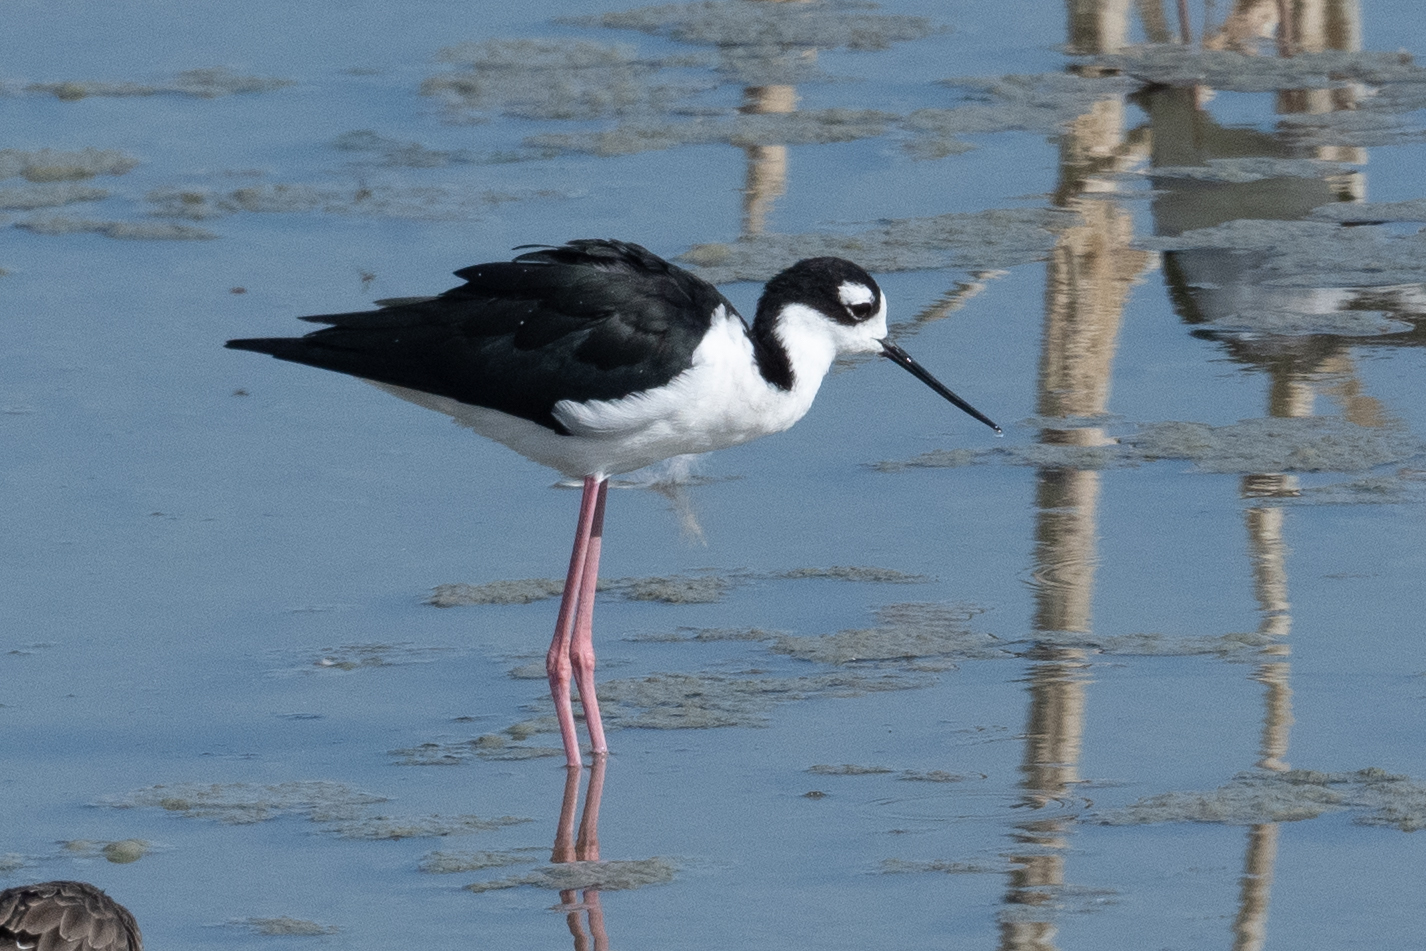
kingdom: Animalia
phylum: Chordata
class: Aves
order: Charadriiformes
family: Recurvirostridae
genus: Himantopus
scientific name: Himantopus mexicanus
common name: Black-necked stilt
